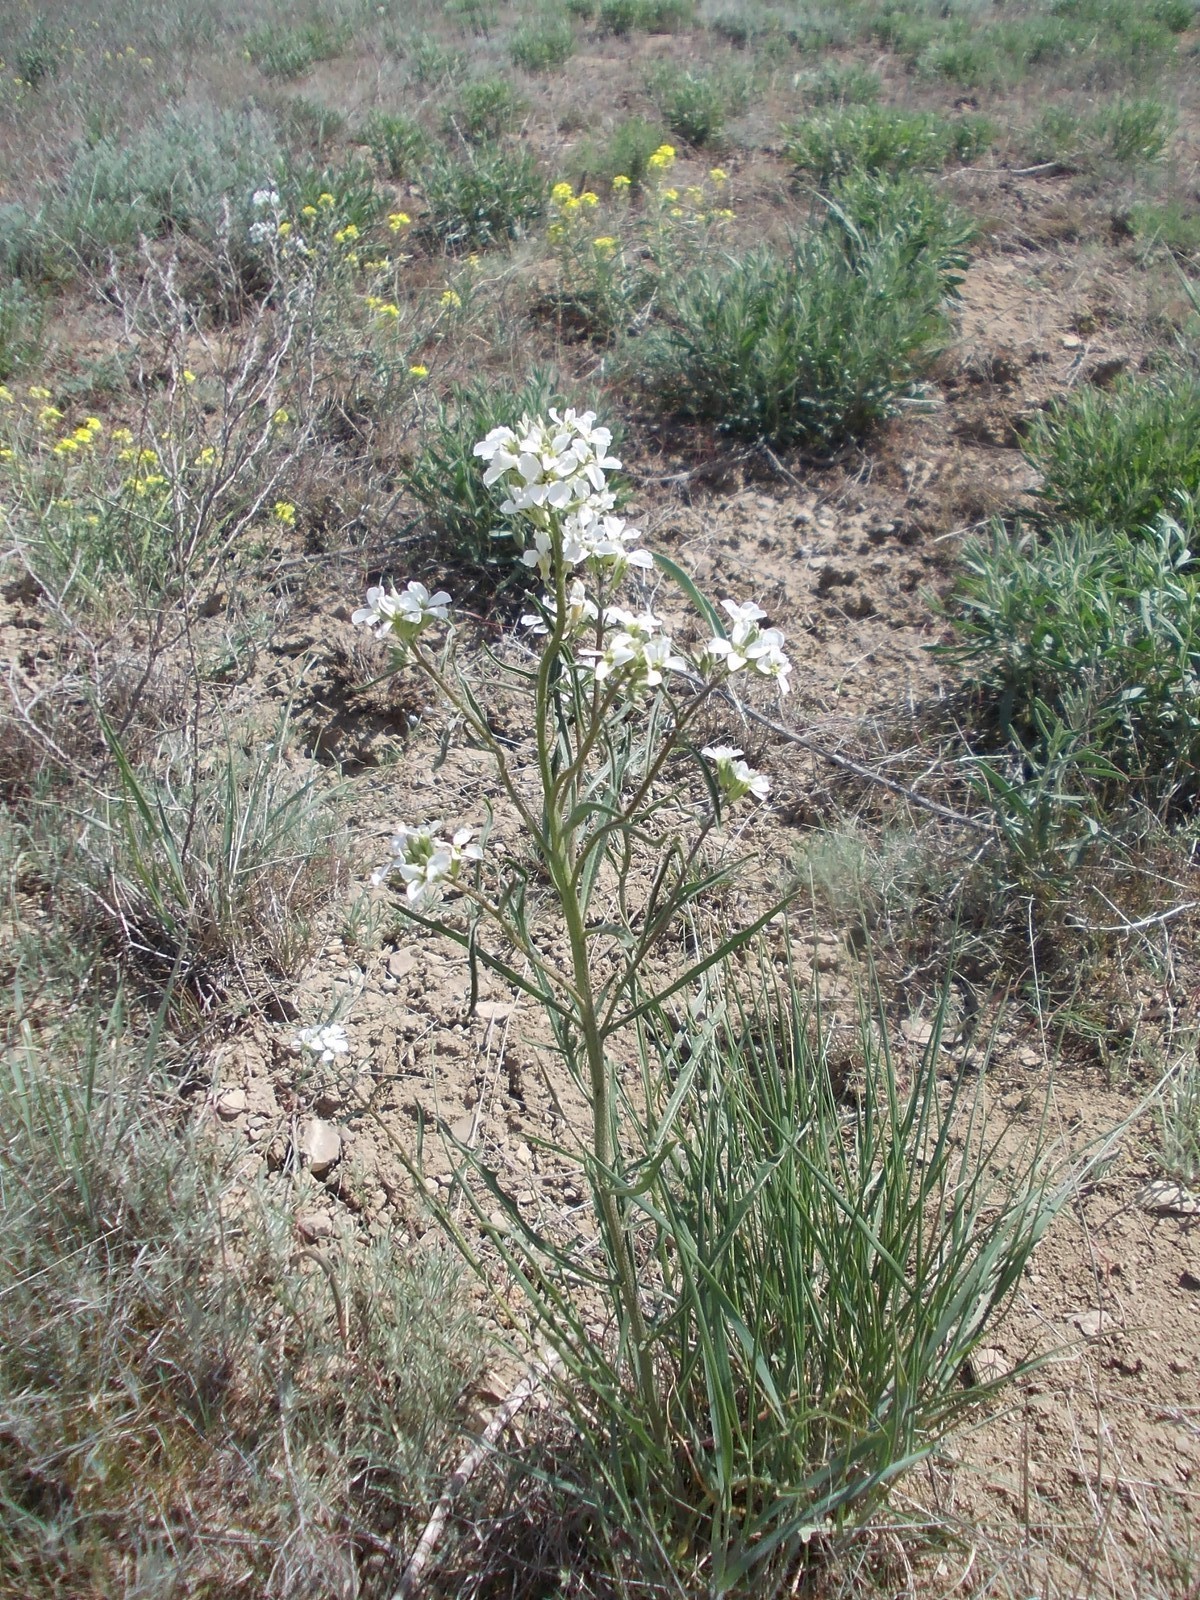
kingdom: Plantae
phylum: Tracheophyta
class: Magnoliopsida
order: Brassicales
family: Brassicaceae
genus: Erysimum
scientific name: Erysimum leucanthemum
